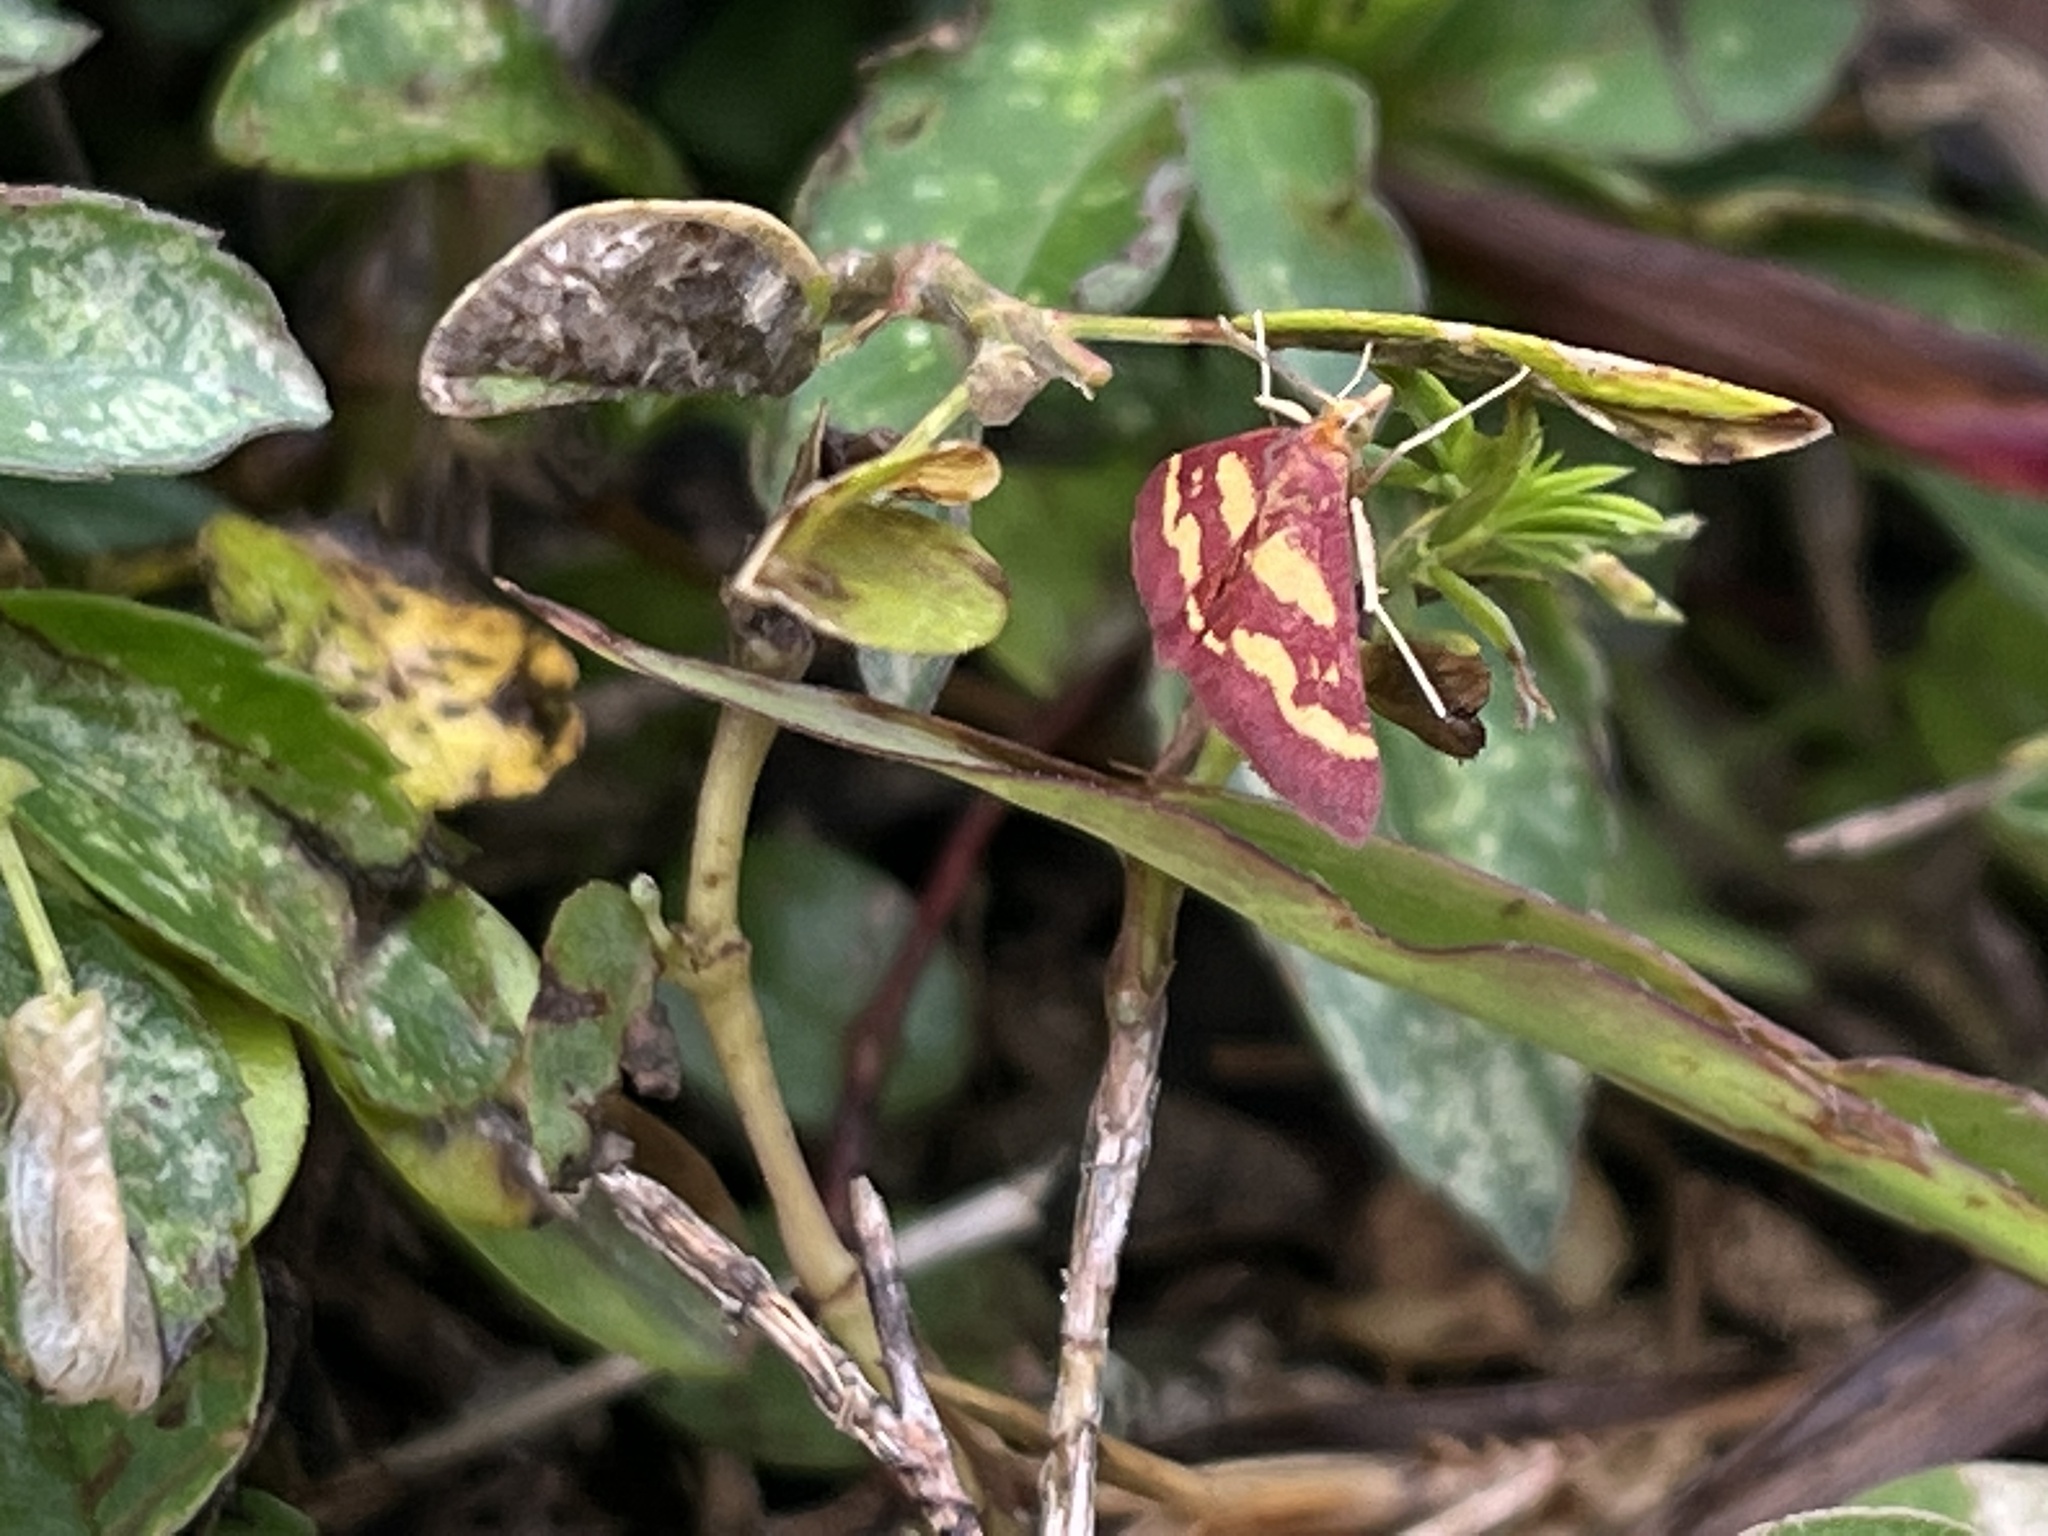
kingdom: Animalia
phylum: Arthropoda
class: Insecta
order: Lepidoptera
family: Crambidae
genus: Pyrausta
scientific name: Pyrausta tyralis
